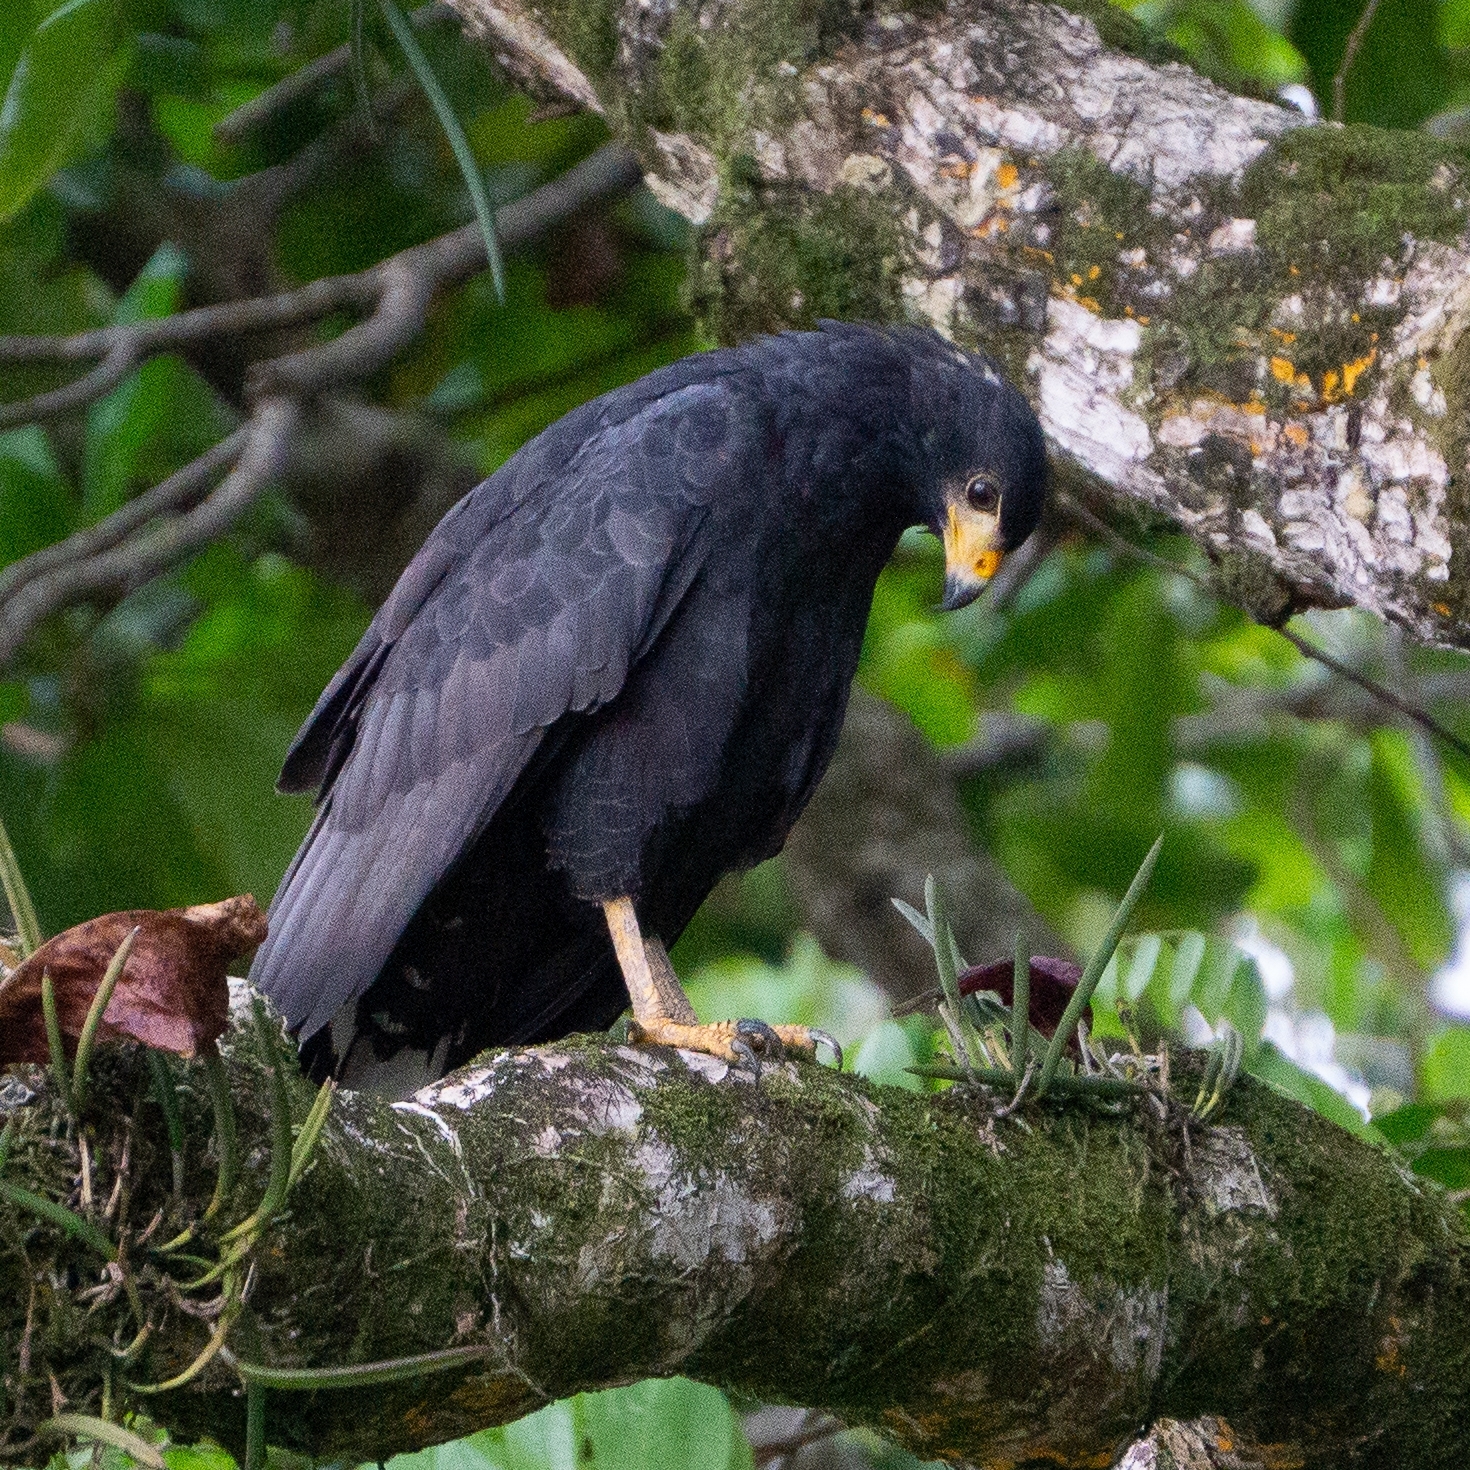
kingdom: Animalia
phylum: Chordata
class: Aves
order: Accipitriformes
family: Accipitridae
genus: Buteogallus
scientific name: Buteogallus anthracinus
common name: Common black hawk
